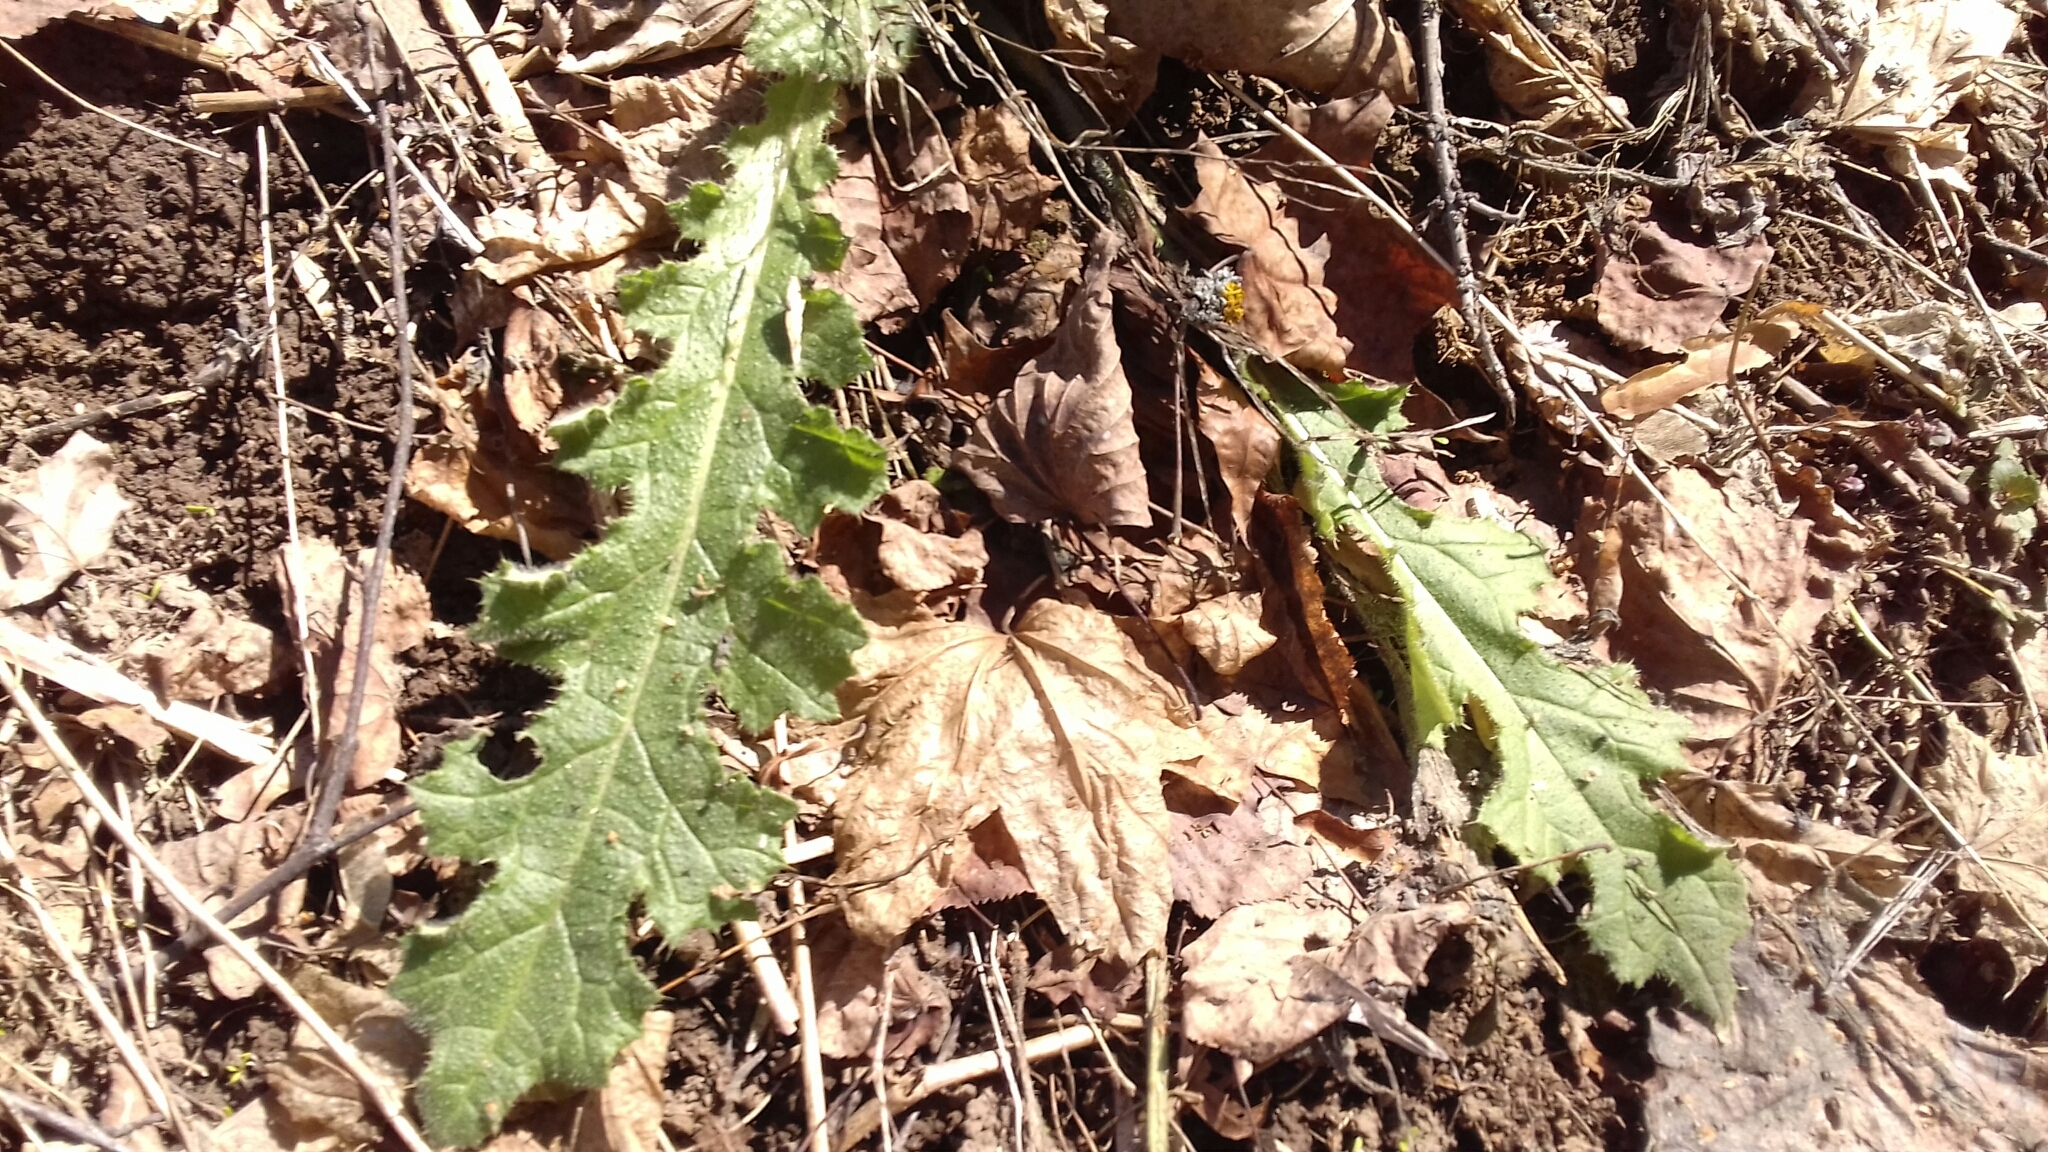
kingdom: Plantae
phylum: Tracheophyta
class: Magnoliopsida
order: Asterales
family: Asteraceae
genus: Carduus
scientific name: Carduus crispus
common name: Welted thistle
